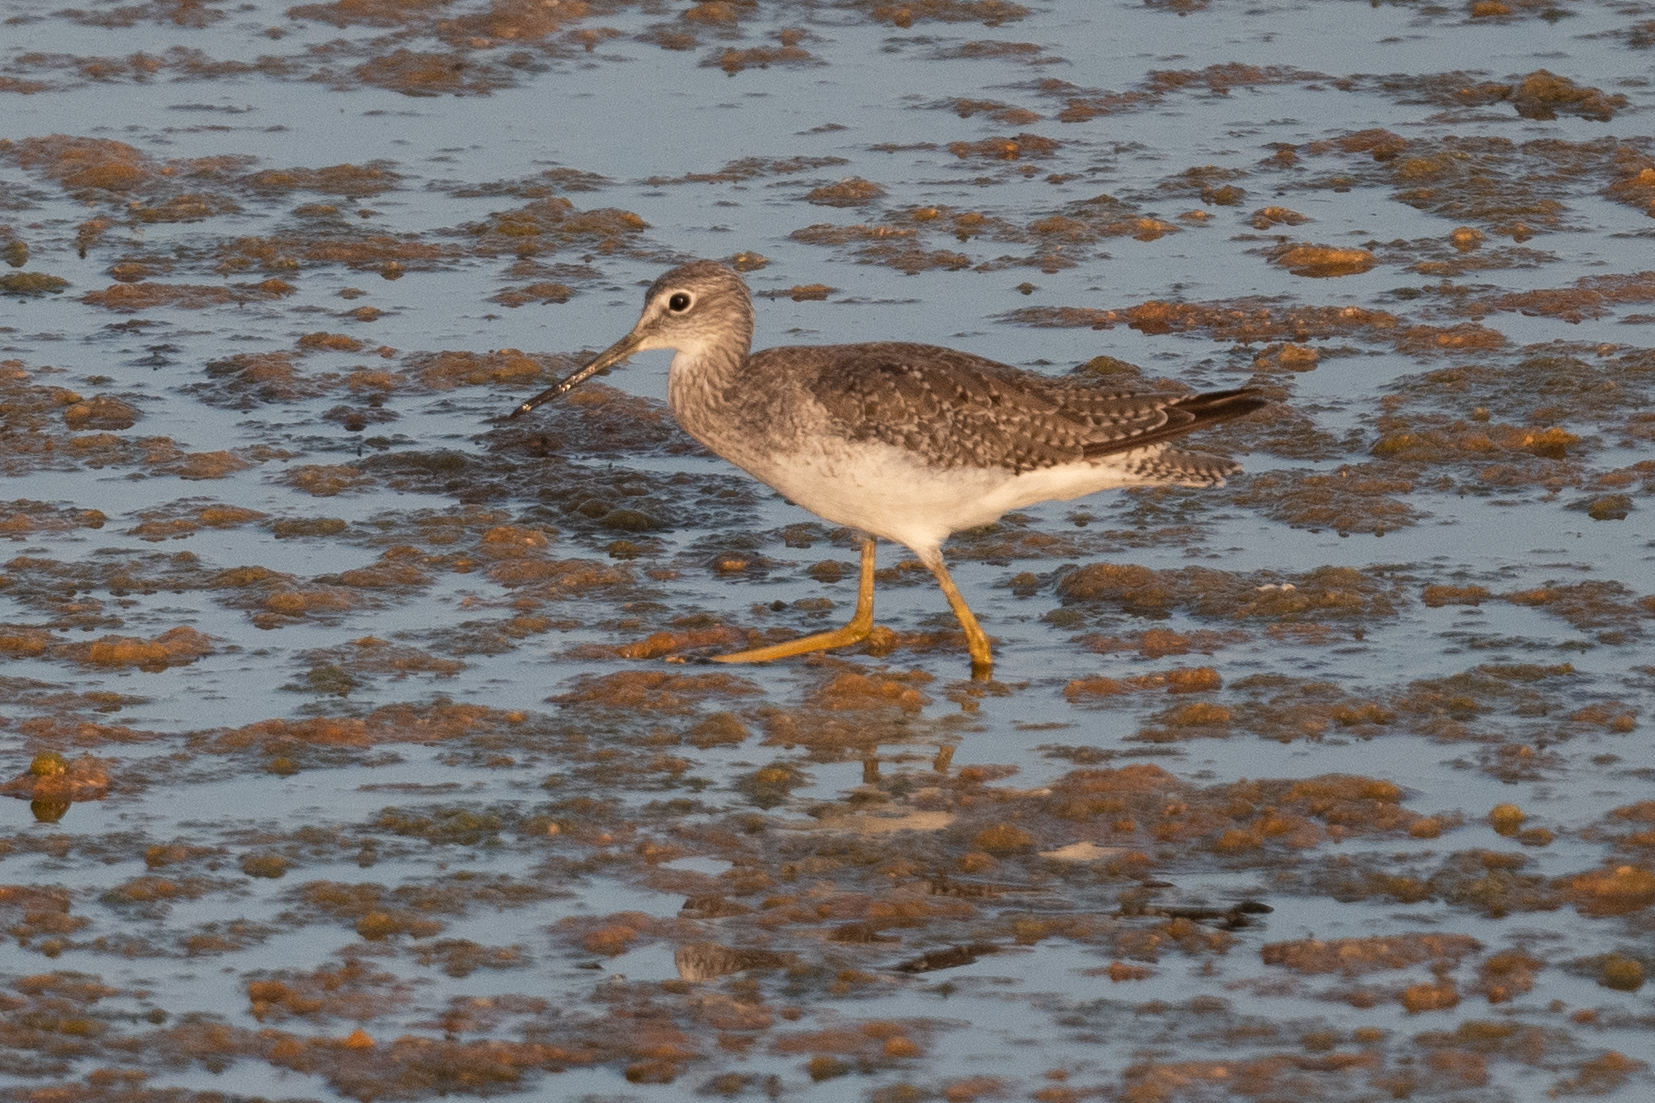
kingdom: Animalia
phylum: Chordata
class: Aves
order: Charadriiformes
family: Scolopacidae
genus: Tringa
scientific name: Tringa melanoleuca
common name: Greater yellowlegs
